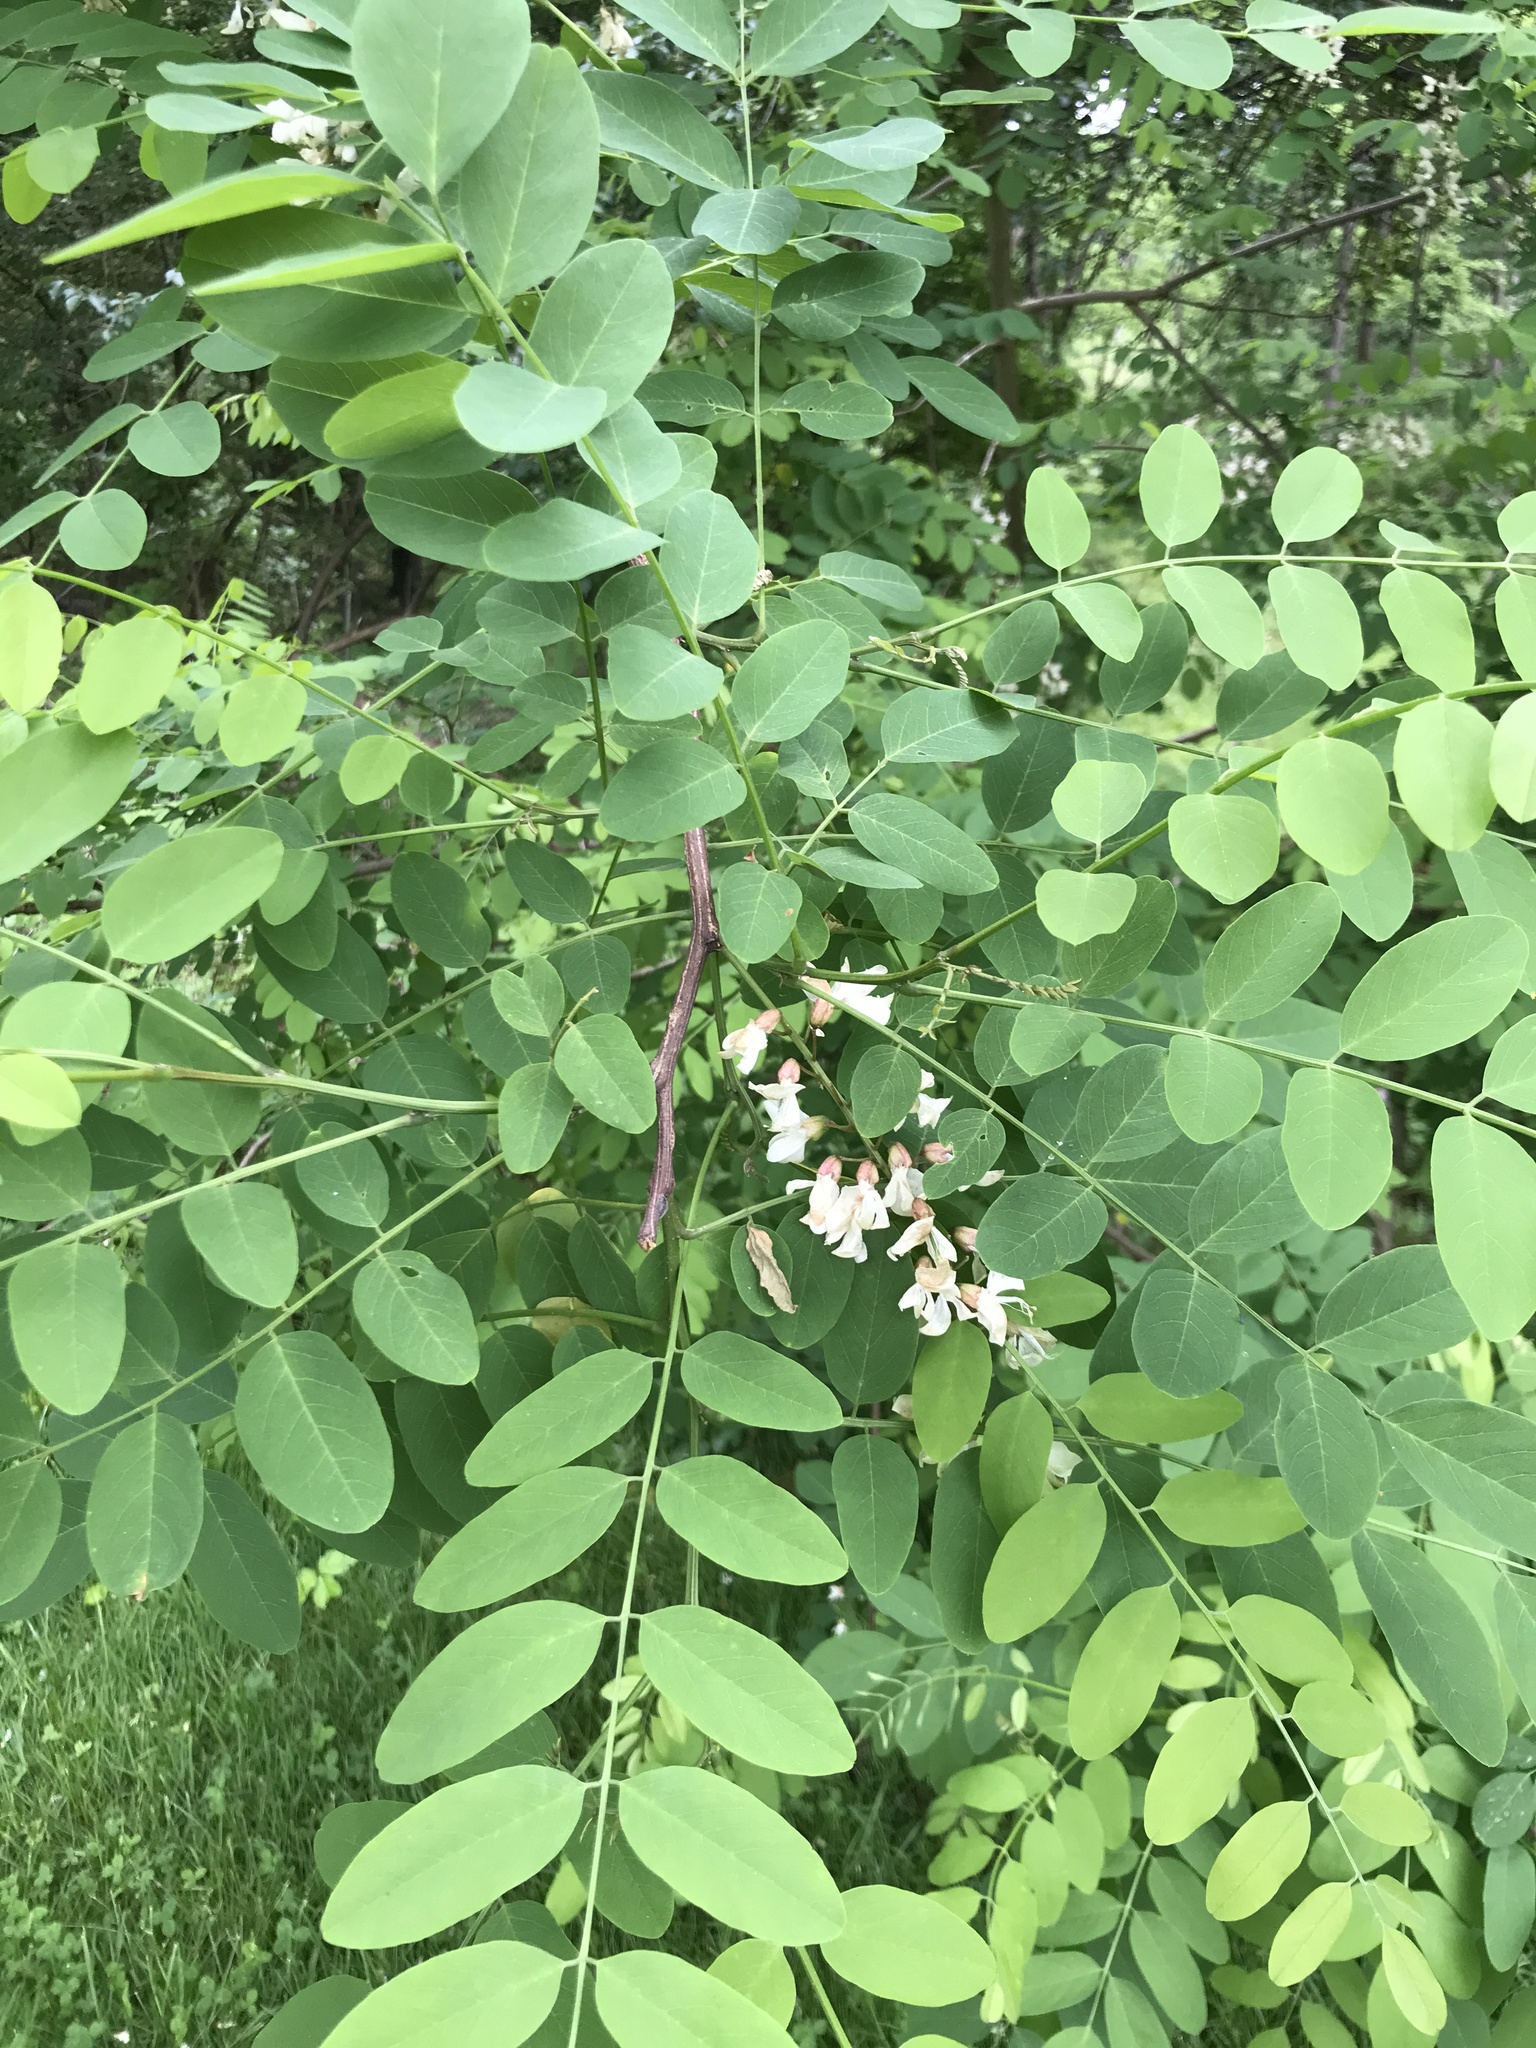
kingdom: Plantae
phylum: Tracheophyta
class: Magnoliopsida
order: Fabales
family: Fabaceae
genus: Robinia
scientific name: Robinia pseudoacacia
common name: Black locust
